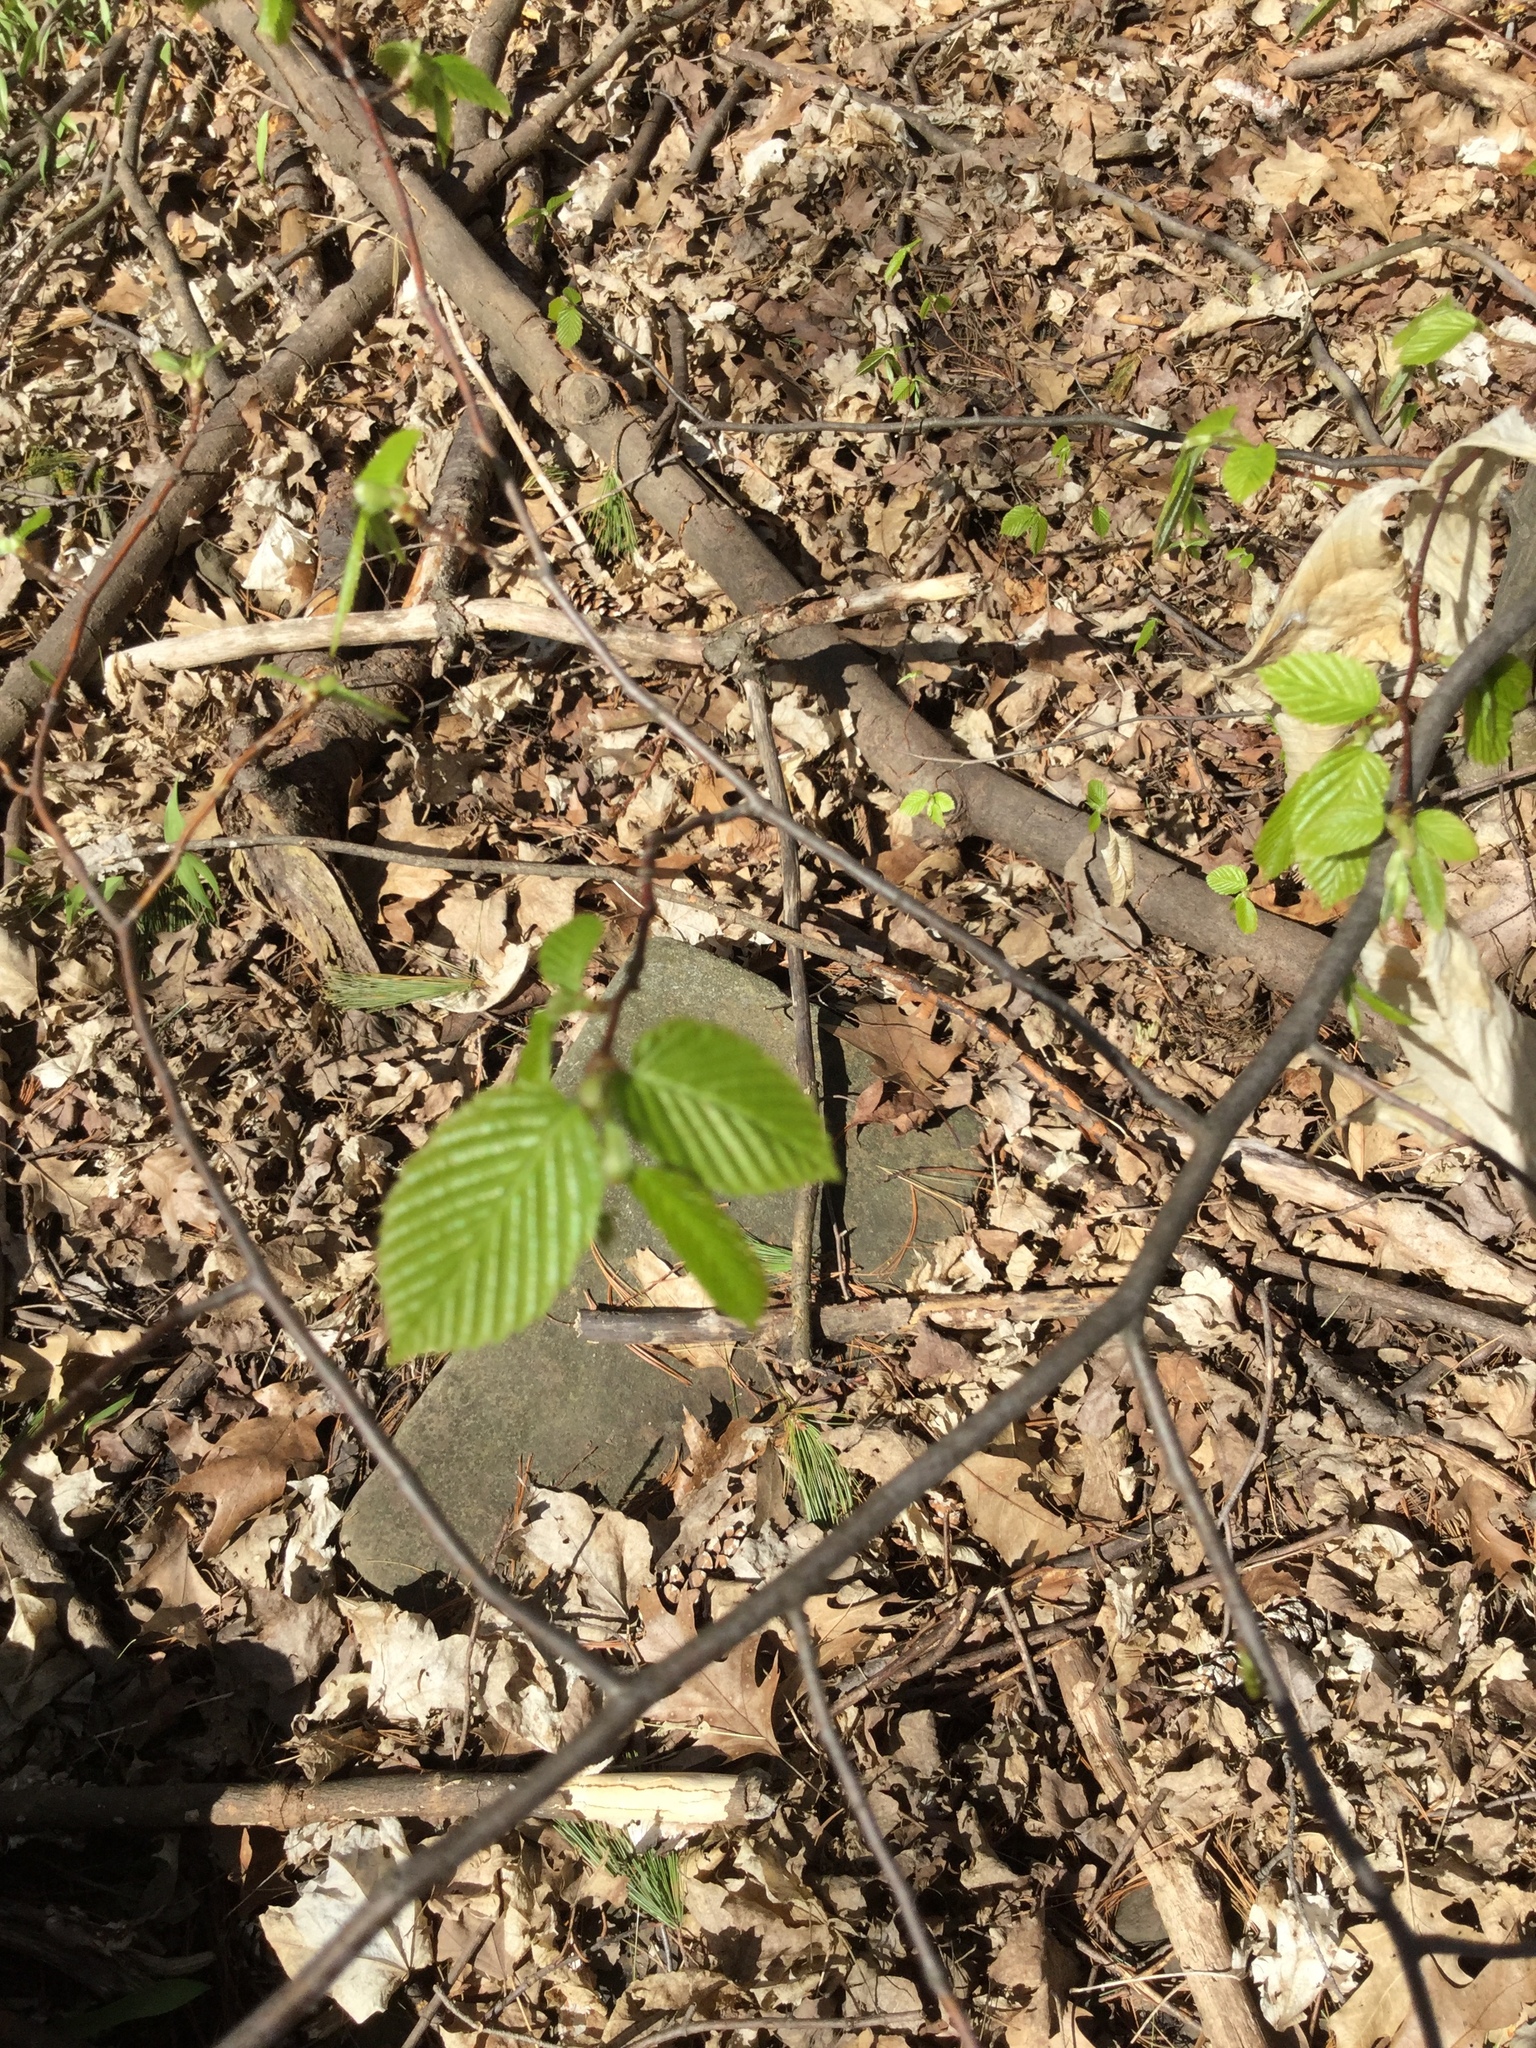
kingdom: Plantae
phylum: Tracheophyta
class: Magnoliopsida
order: Fagales
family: Betulaceae
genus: Carpinus
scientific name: Carpinus caroliniana
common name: American hornbeam
